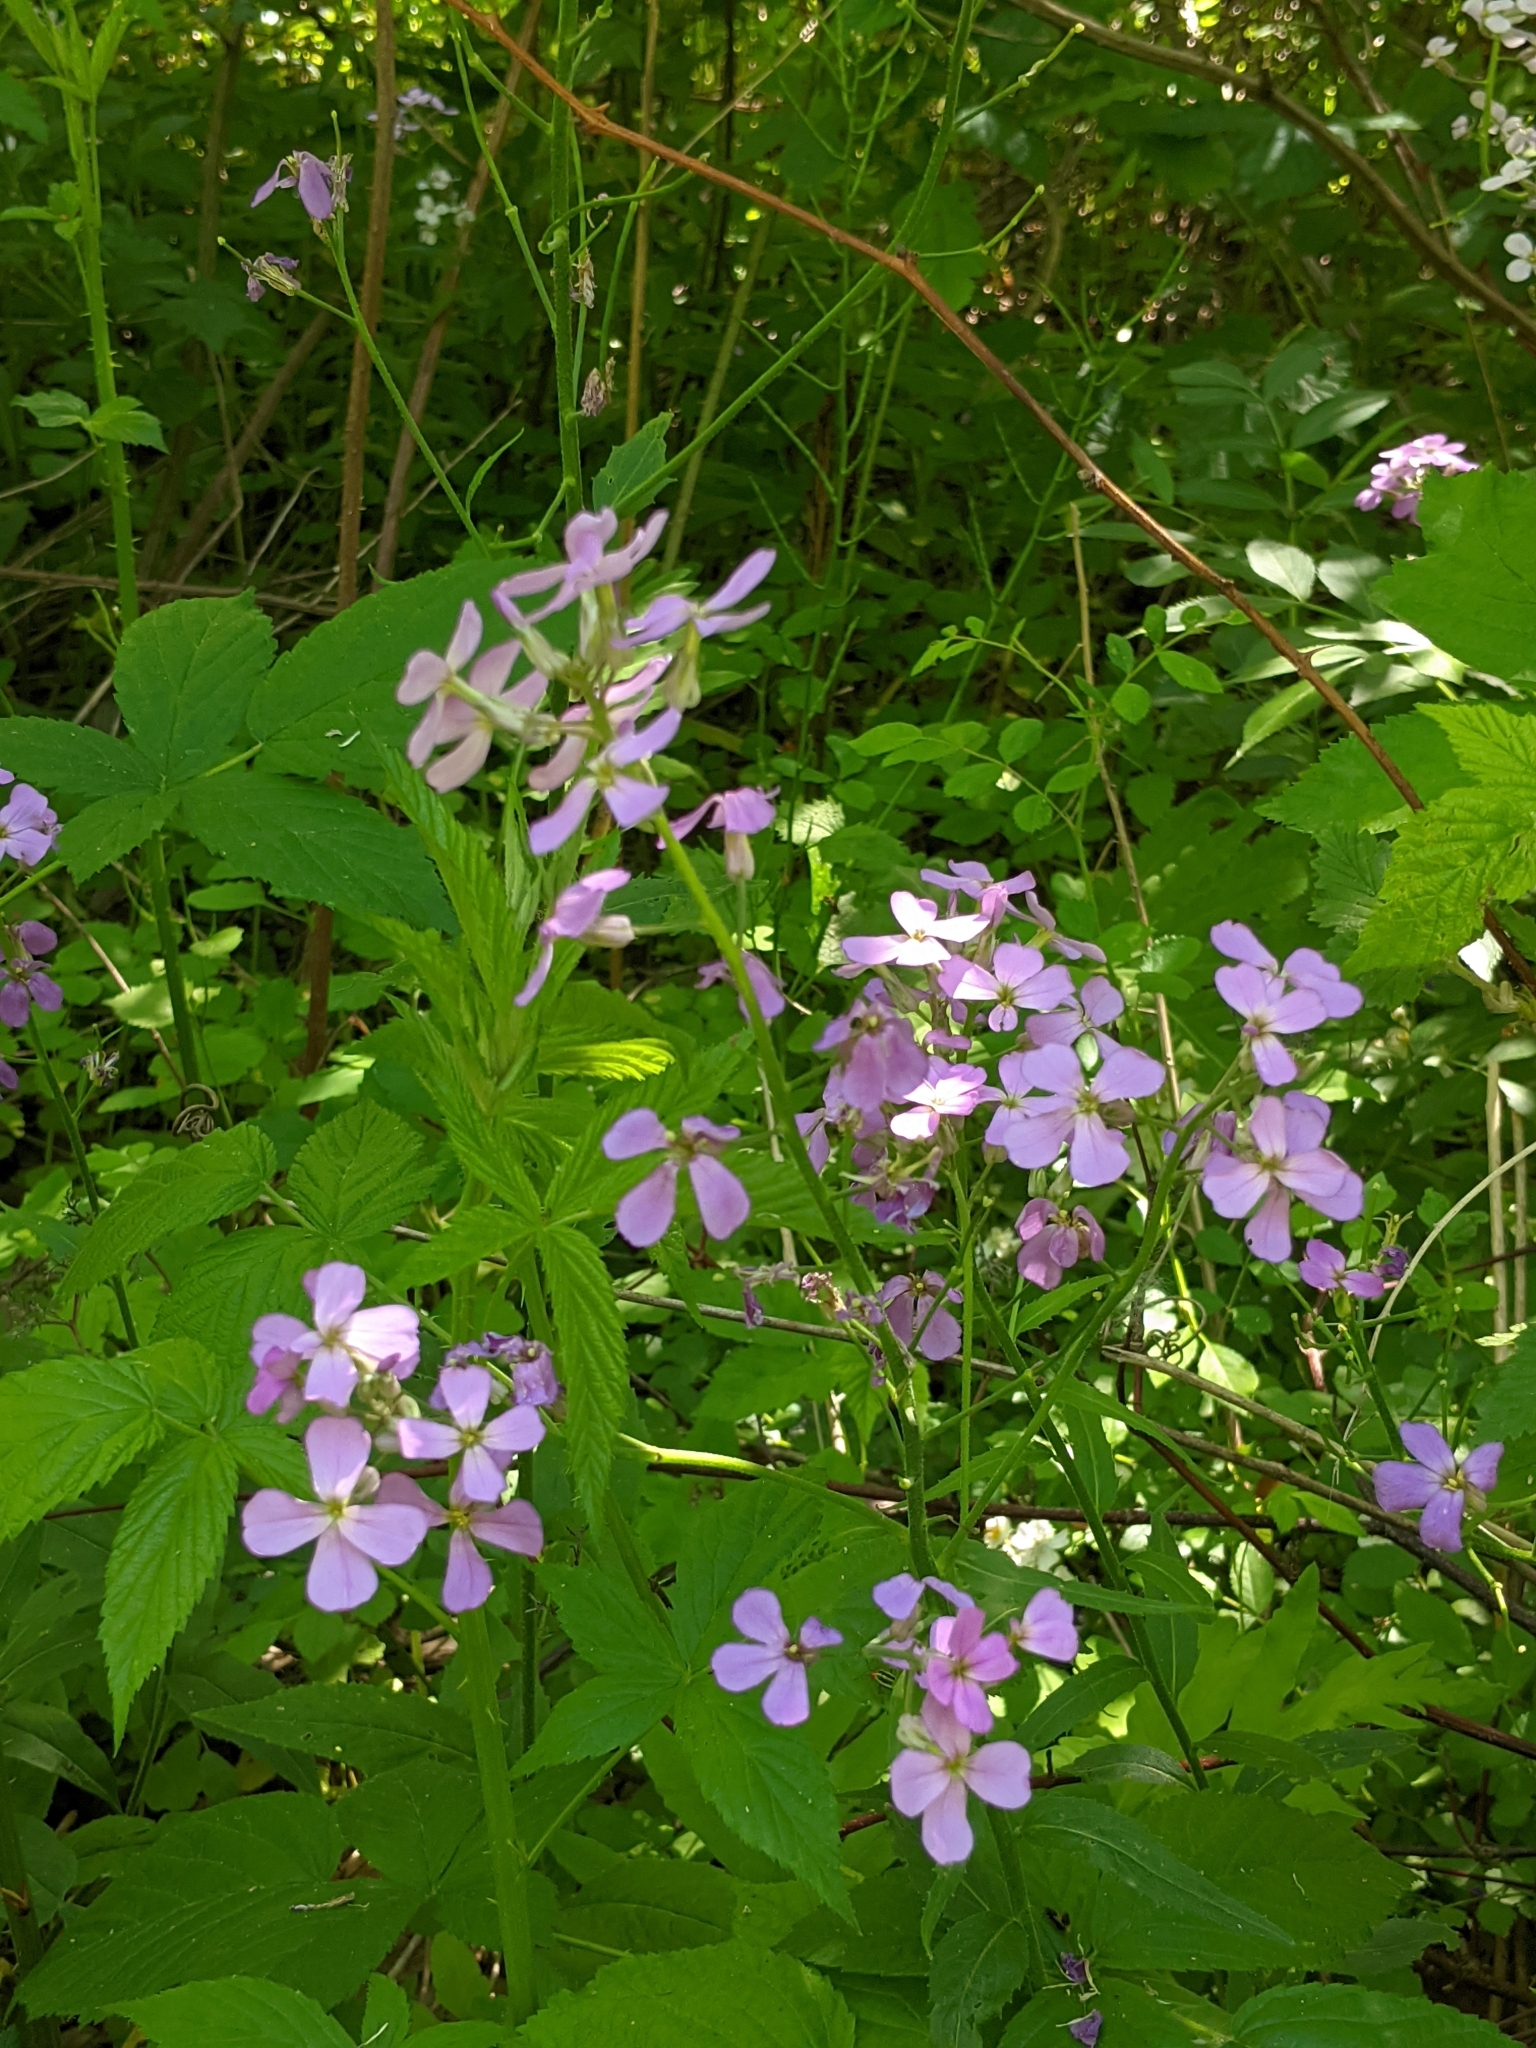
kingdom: Plantae
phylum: Tracheophyta
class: Magnoliopsida
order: Brassicales
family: Brassicaceae
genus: Hesperis
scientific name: Hesperis matronalis
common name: Dame's-violet
